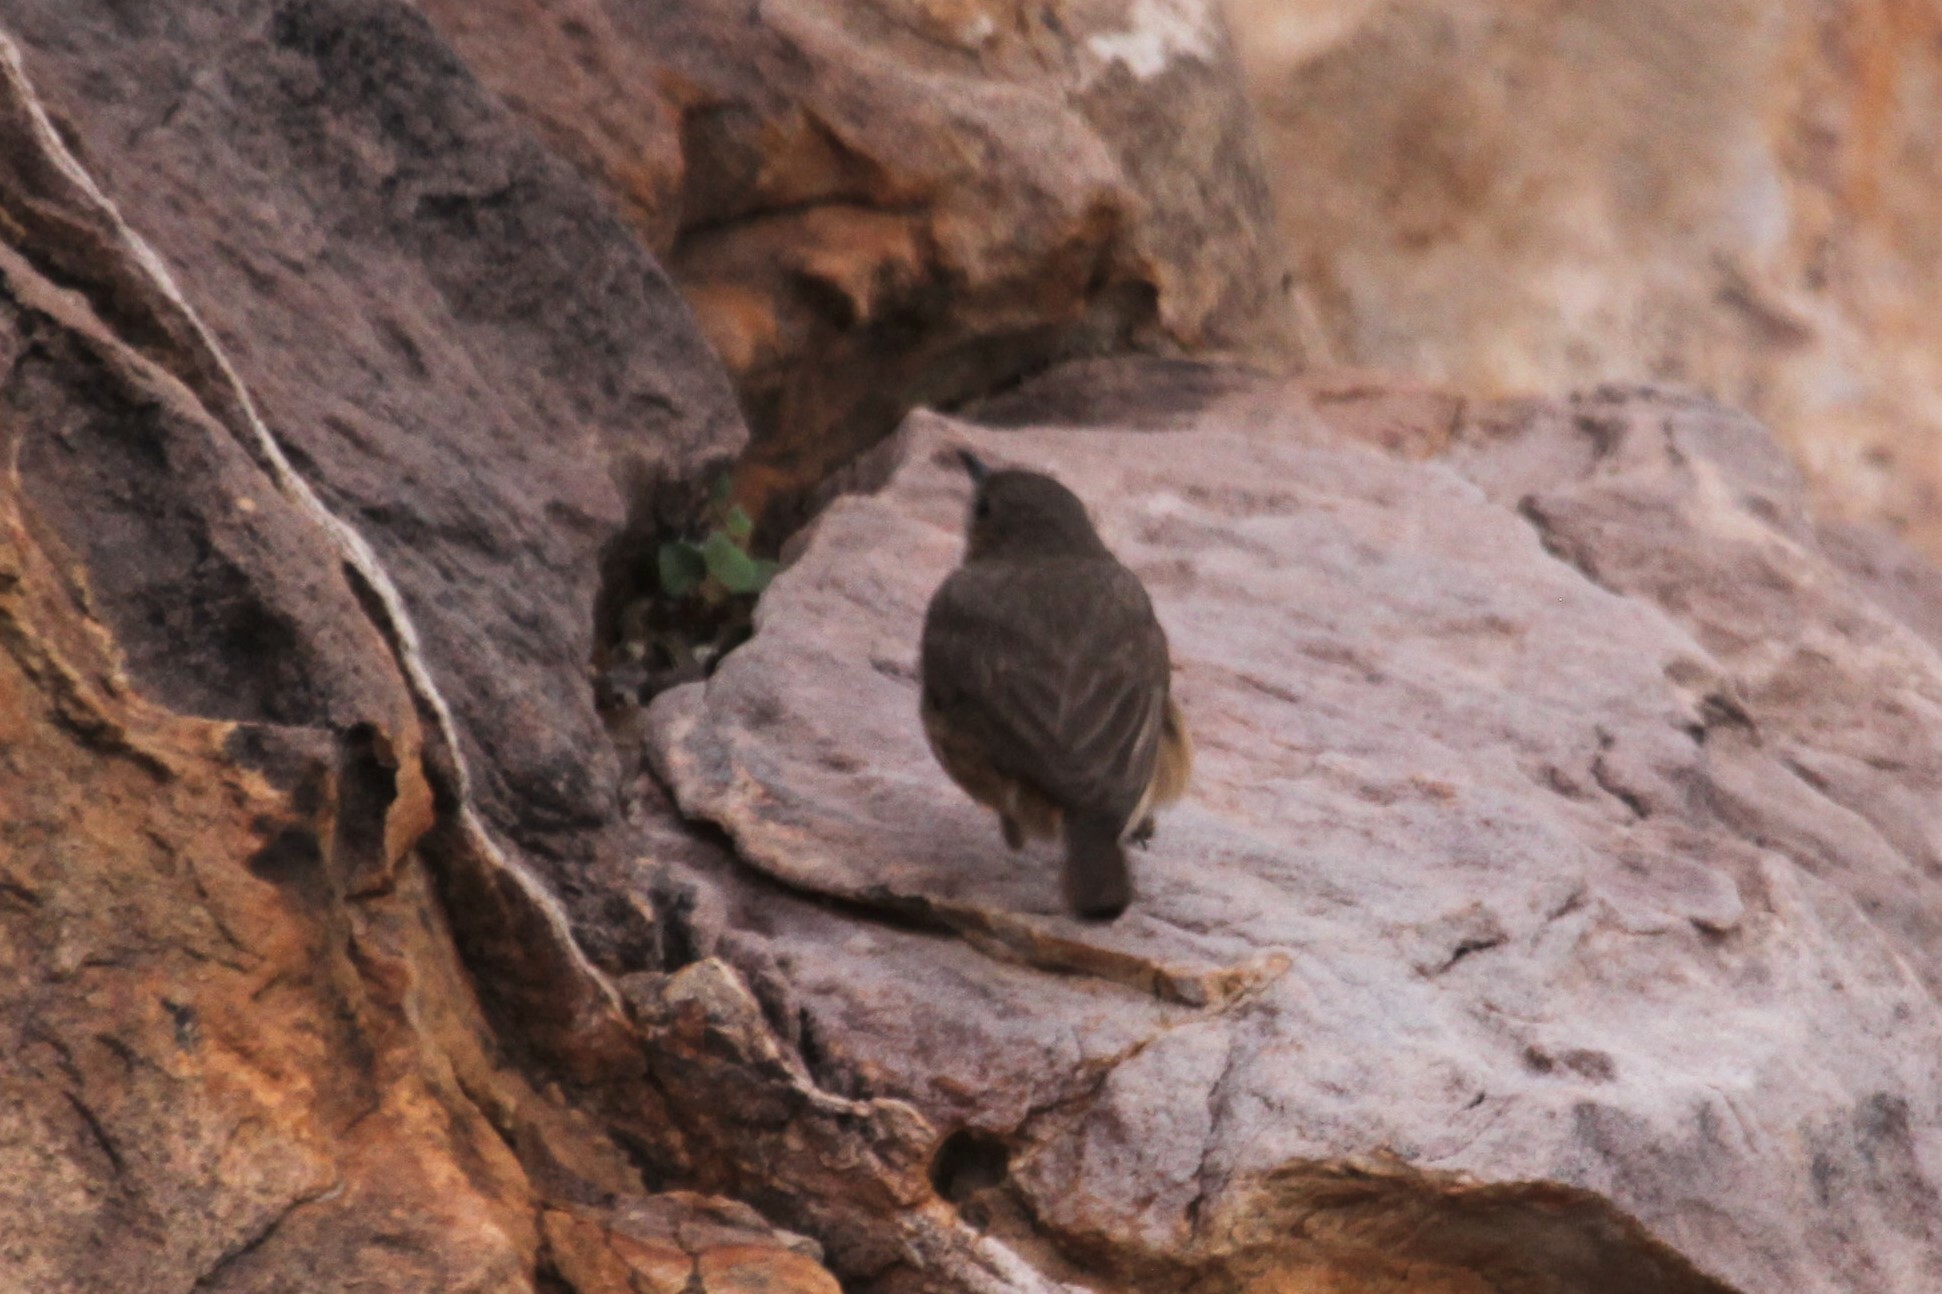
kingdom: Animalia
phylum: Chordata
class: Aves
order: Passeriformes
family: Muscicapidae
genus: Thamnolaea
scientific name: Thamnolaea cinnamomeiventris
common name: Mocking cliff chat
